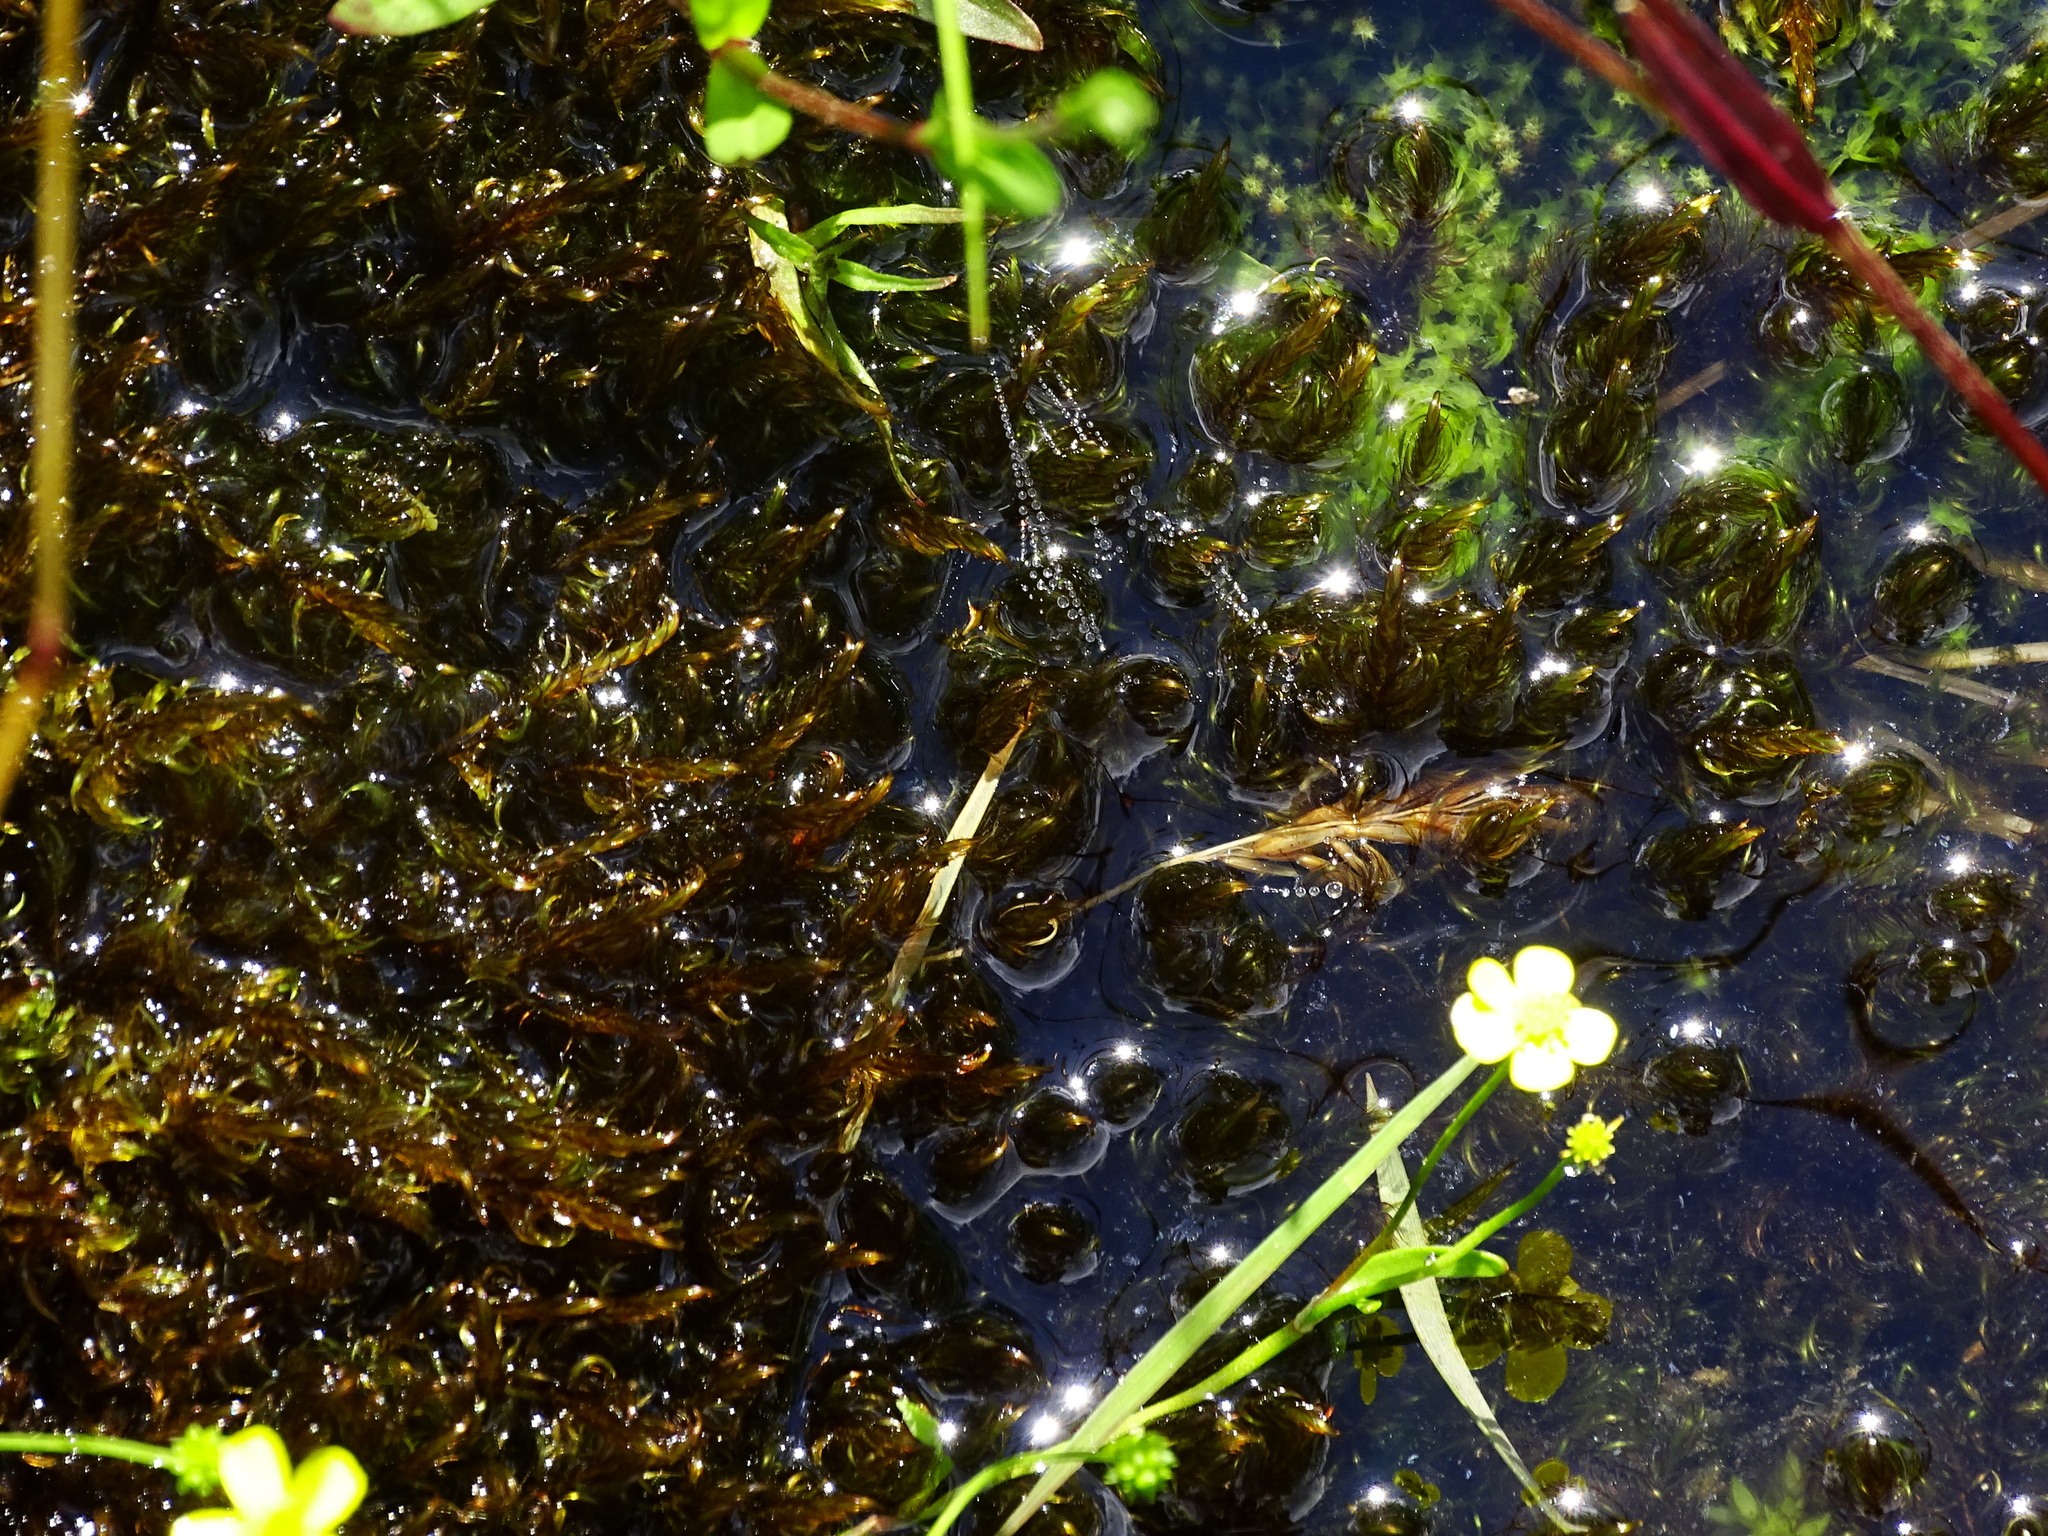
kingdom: Plantae
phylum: Bryophyta
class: Bryopsida
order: Hypnales
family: Calliergonaceae
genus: Sarmentypnum
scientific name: Sarmentypnum exannulatum
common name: Ringless spoon moss
